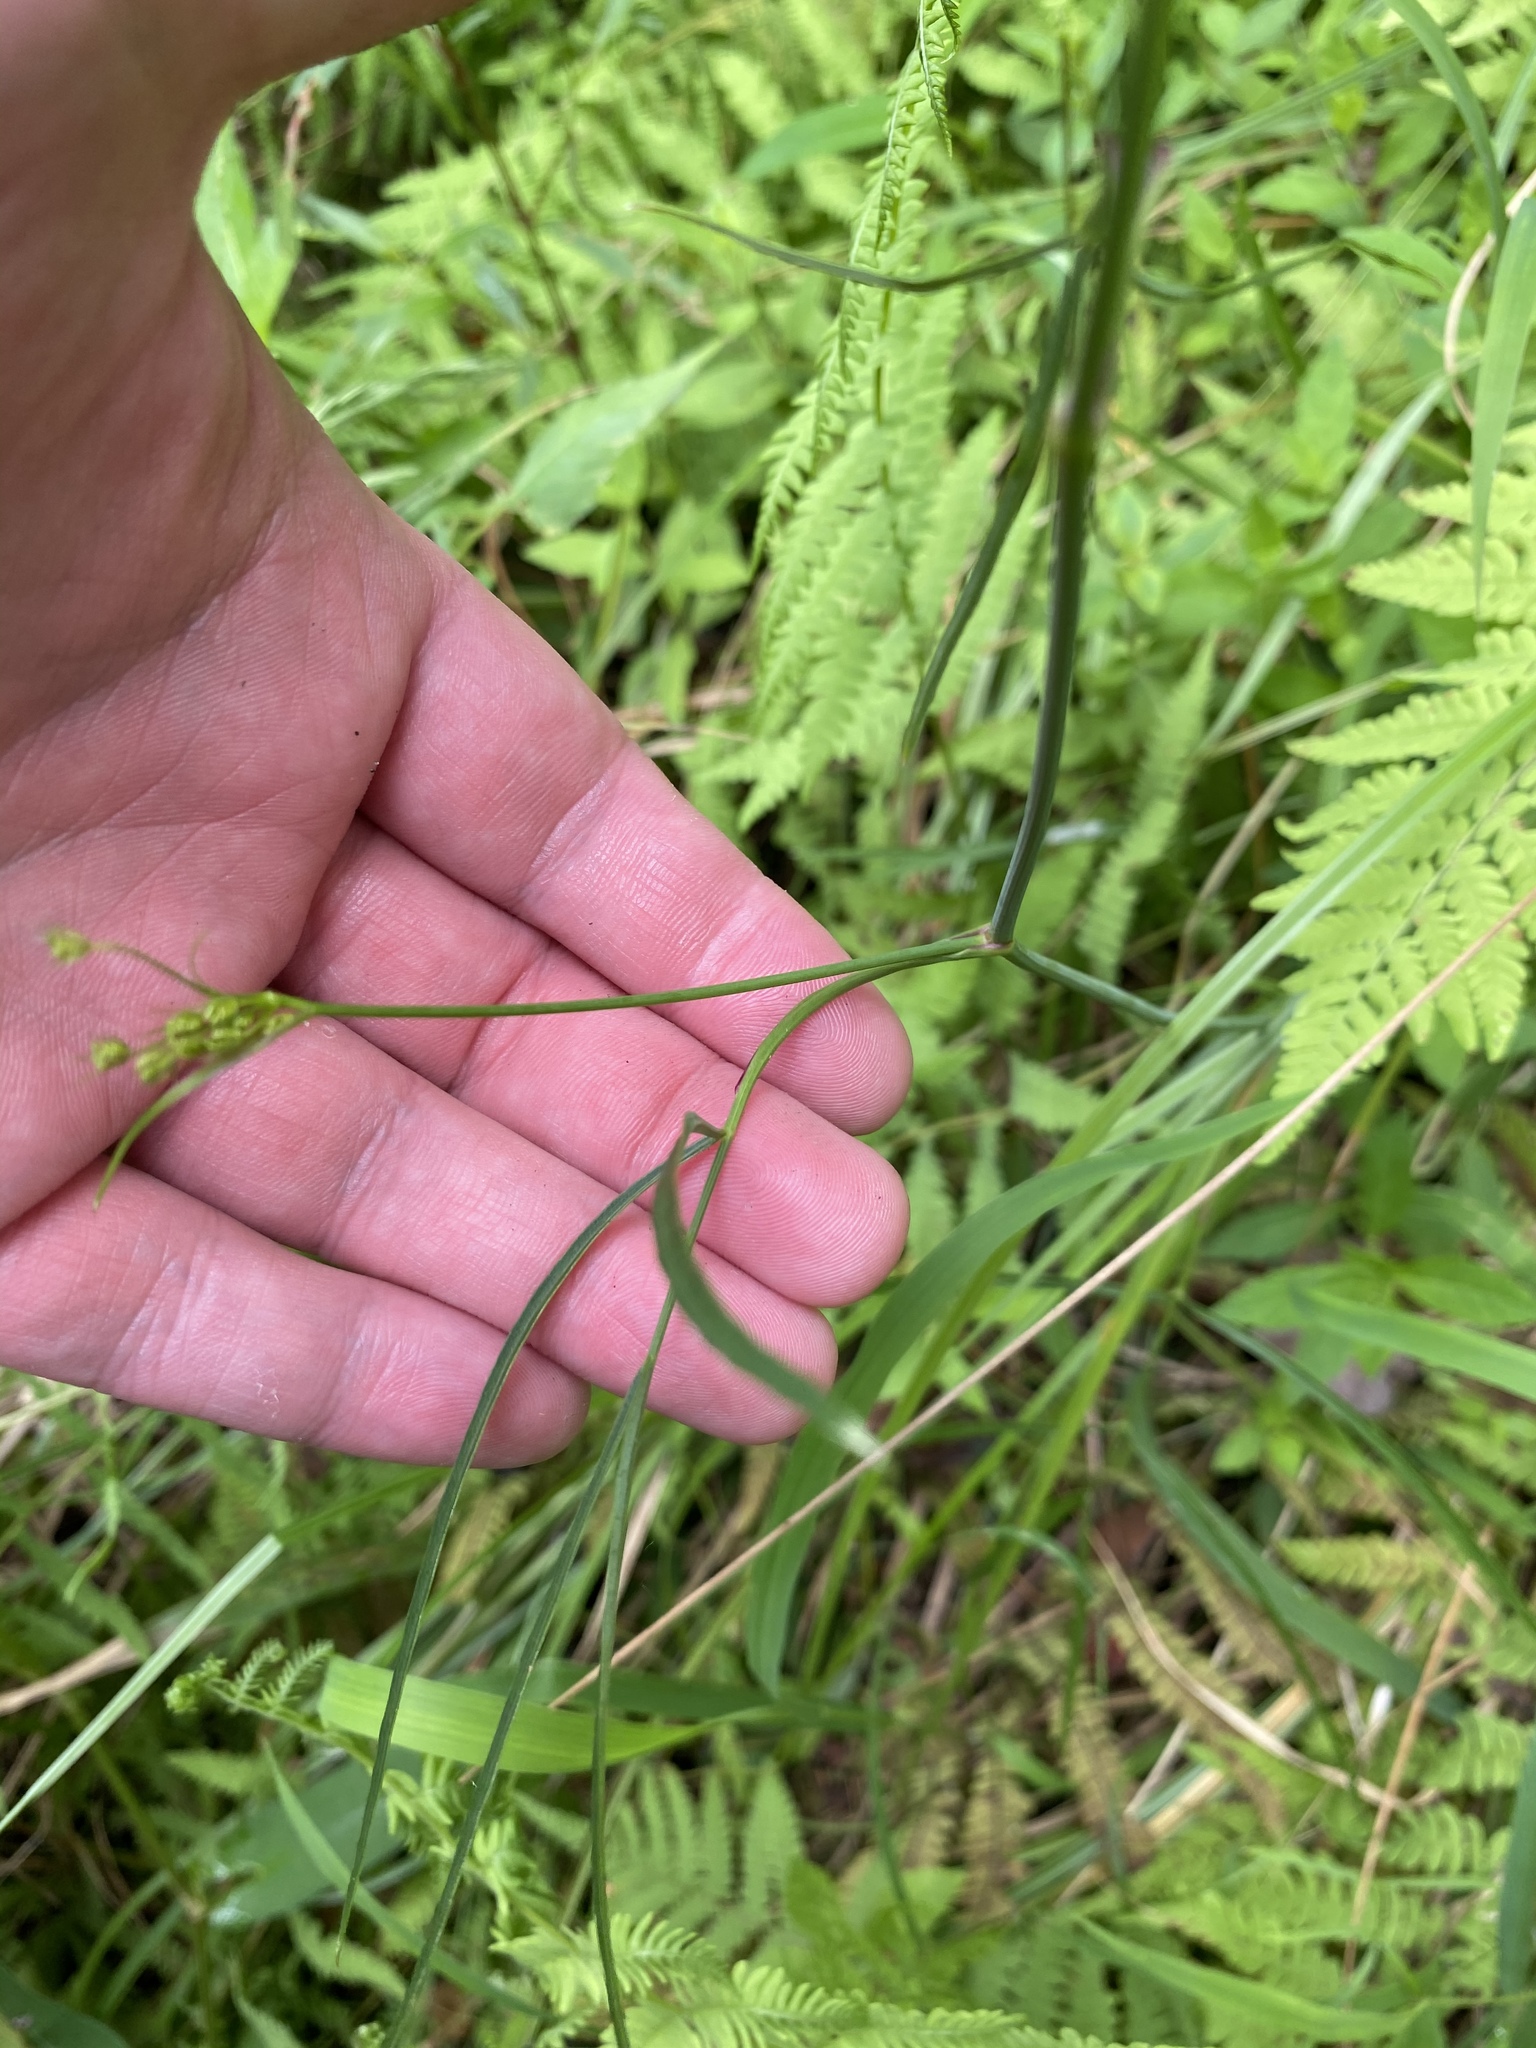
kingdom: Plantae
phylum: Tracheophyta
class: Magnoliopsida
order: Apiales
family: Apiaceae
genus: Oxypolis
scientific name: Oxypolis rigidior
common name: Cowbane
